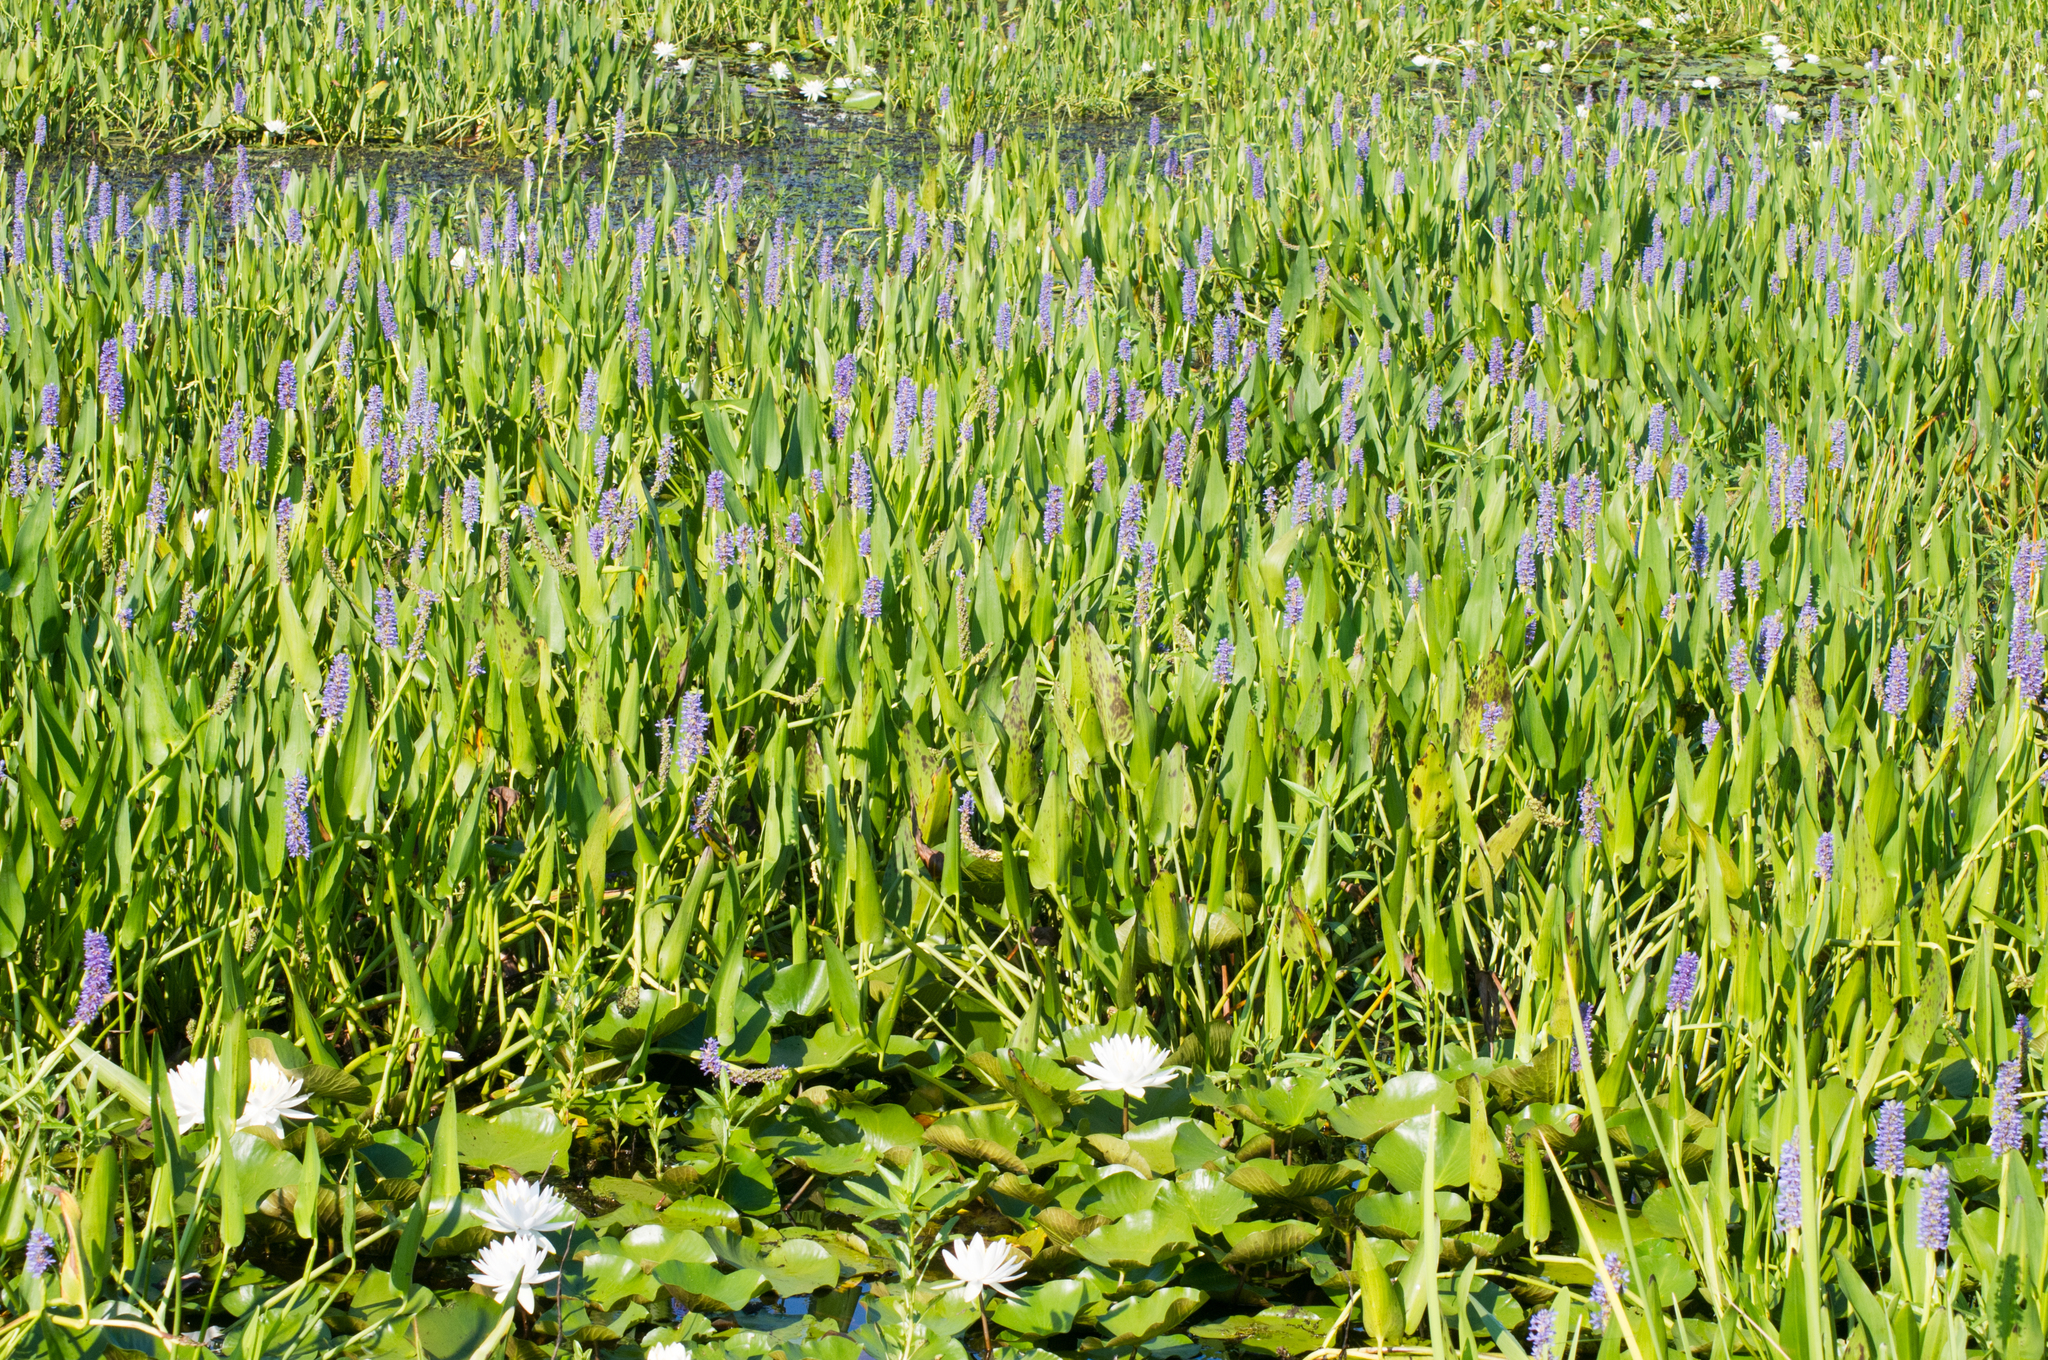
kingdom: Plantae
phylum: Tracheophyta
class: Liliopsida
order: Commelinales
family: Pontederiaceae
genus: Pontederia
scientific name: Pontederia cordata
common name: Pickerelweed
